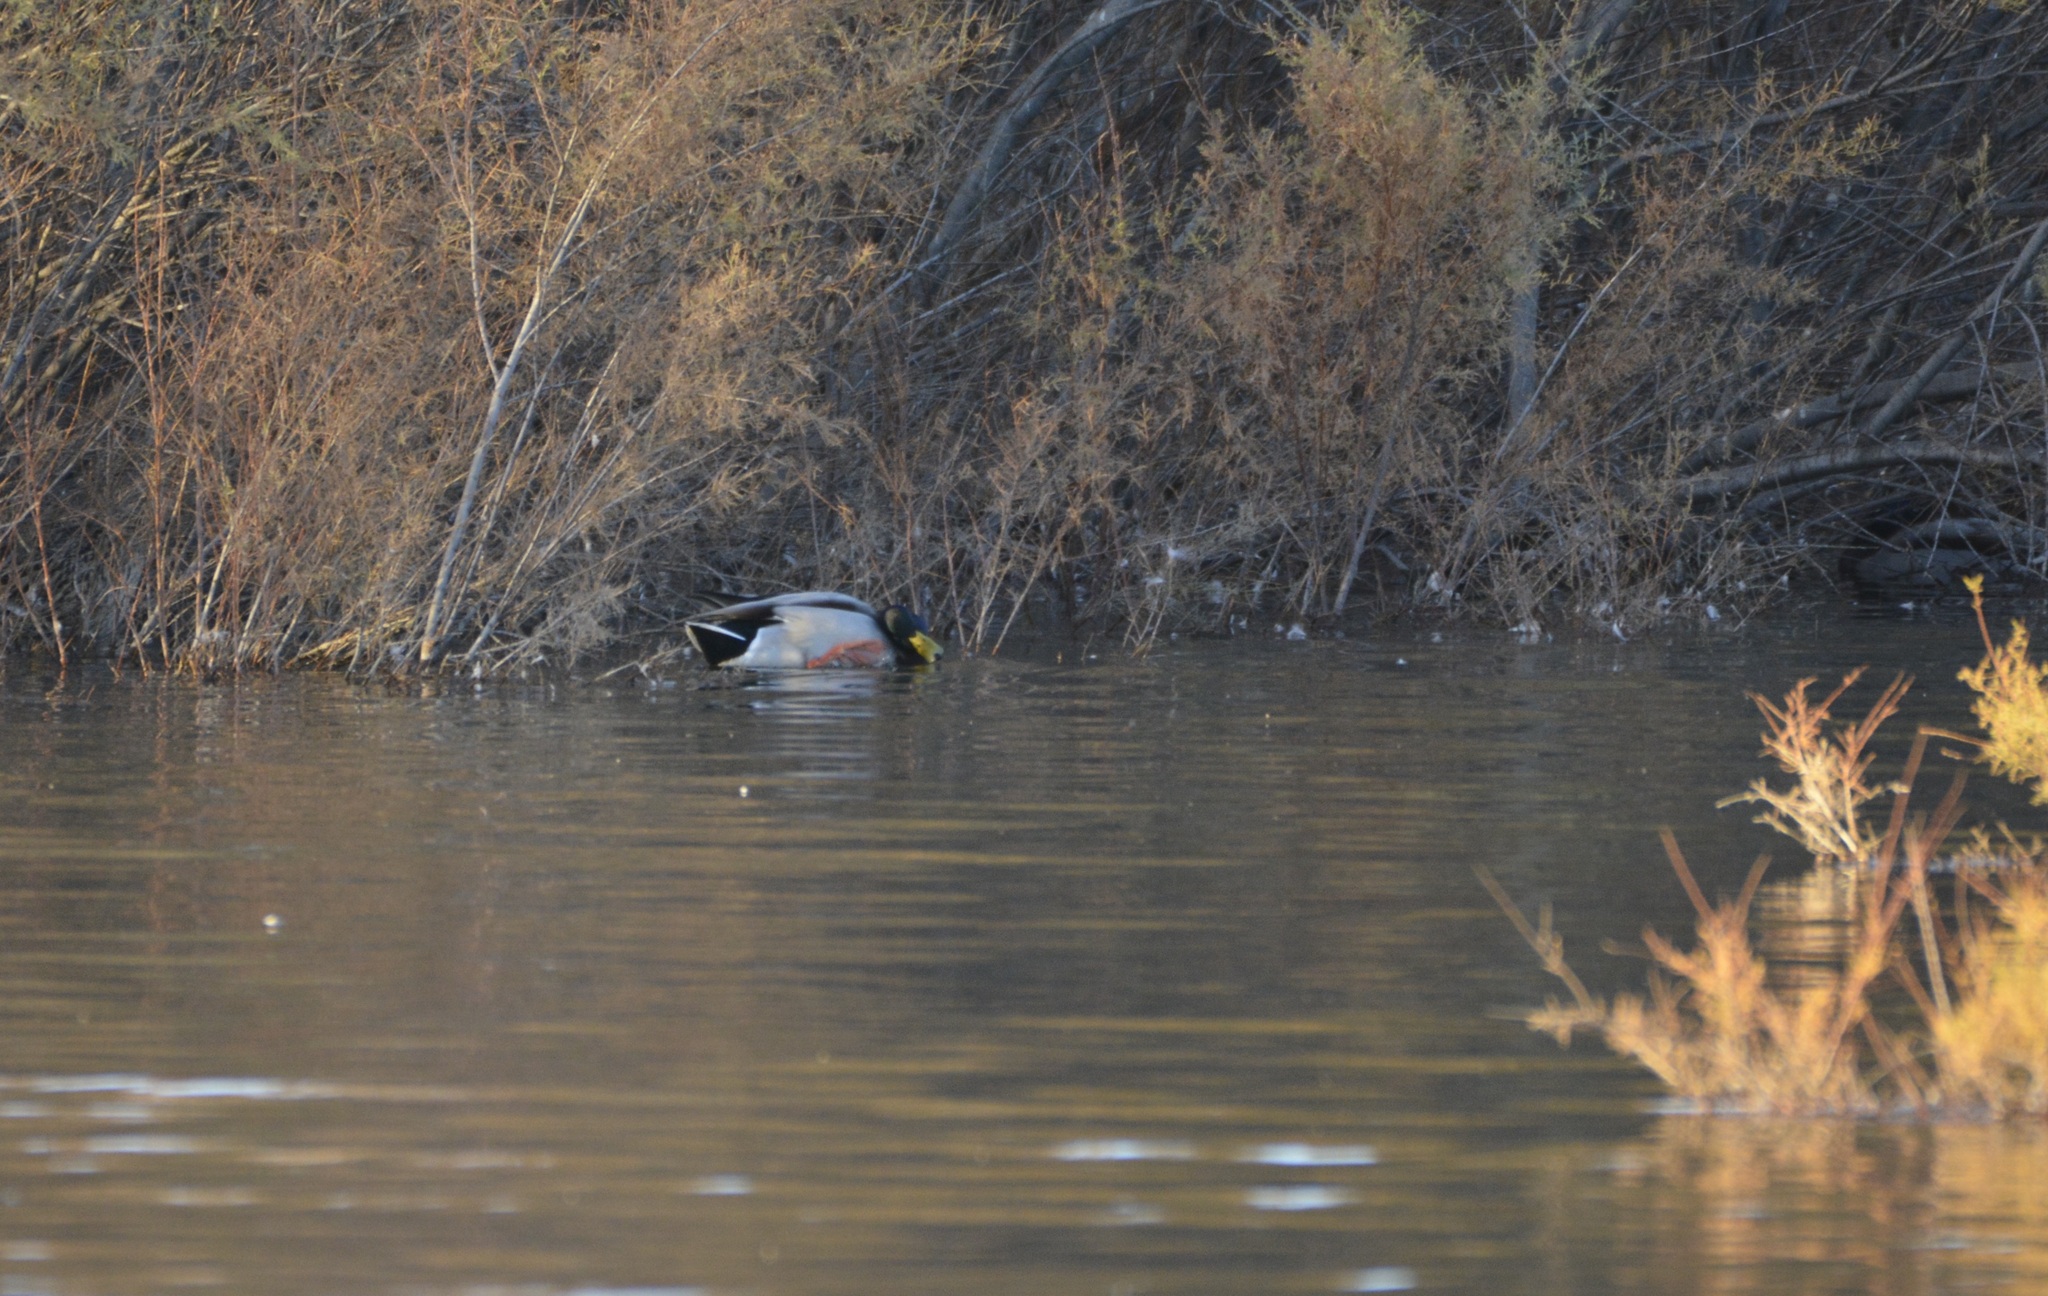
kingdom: Animalia
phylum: Chordata
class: Aves
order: Anseriformes
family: Anatidae
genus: Anas
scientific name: Anas platyrhynchos
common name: Mallard
